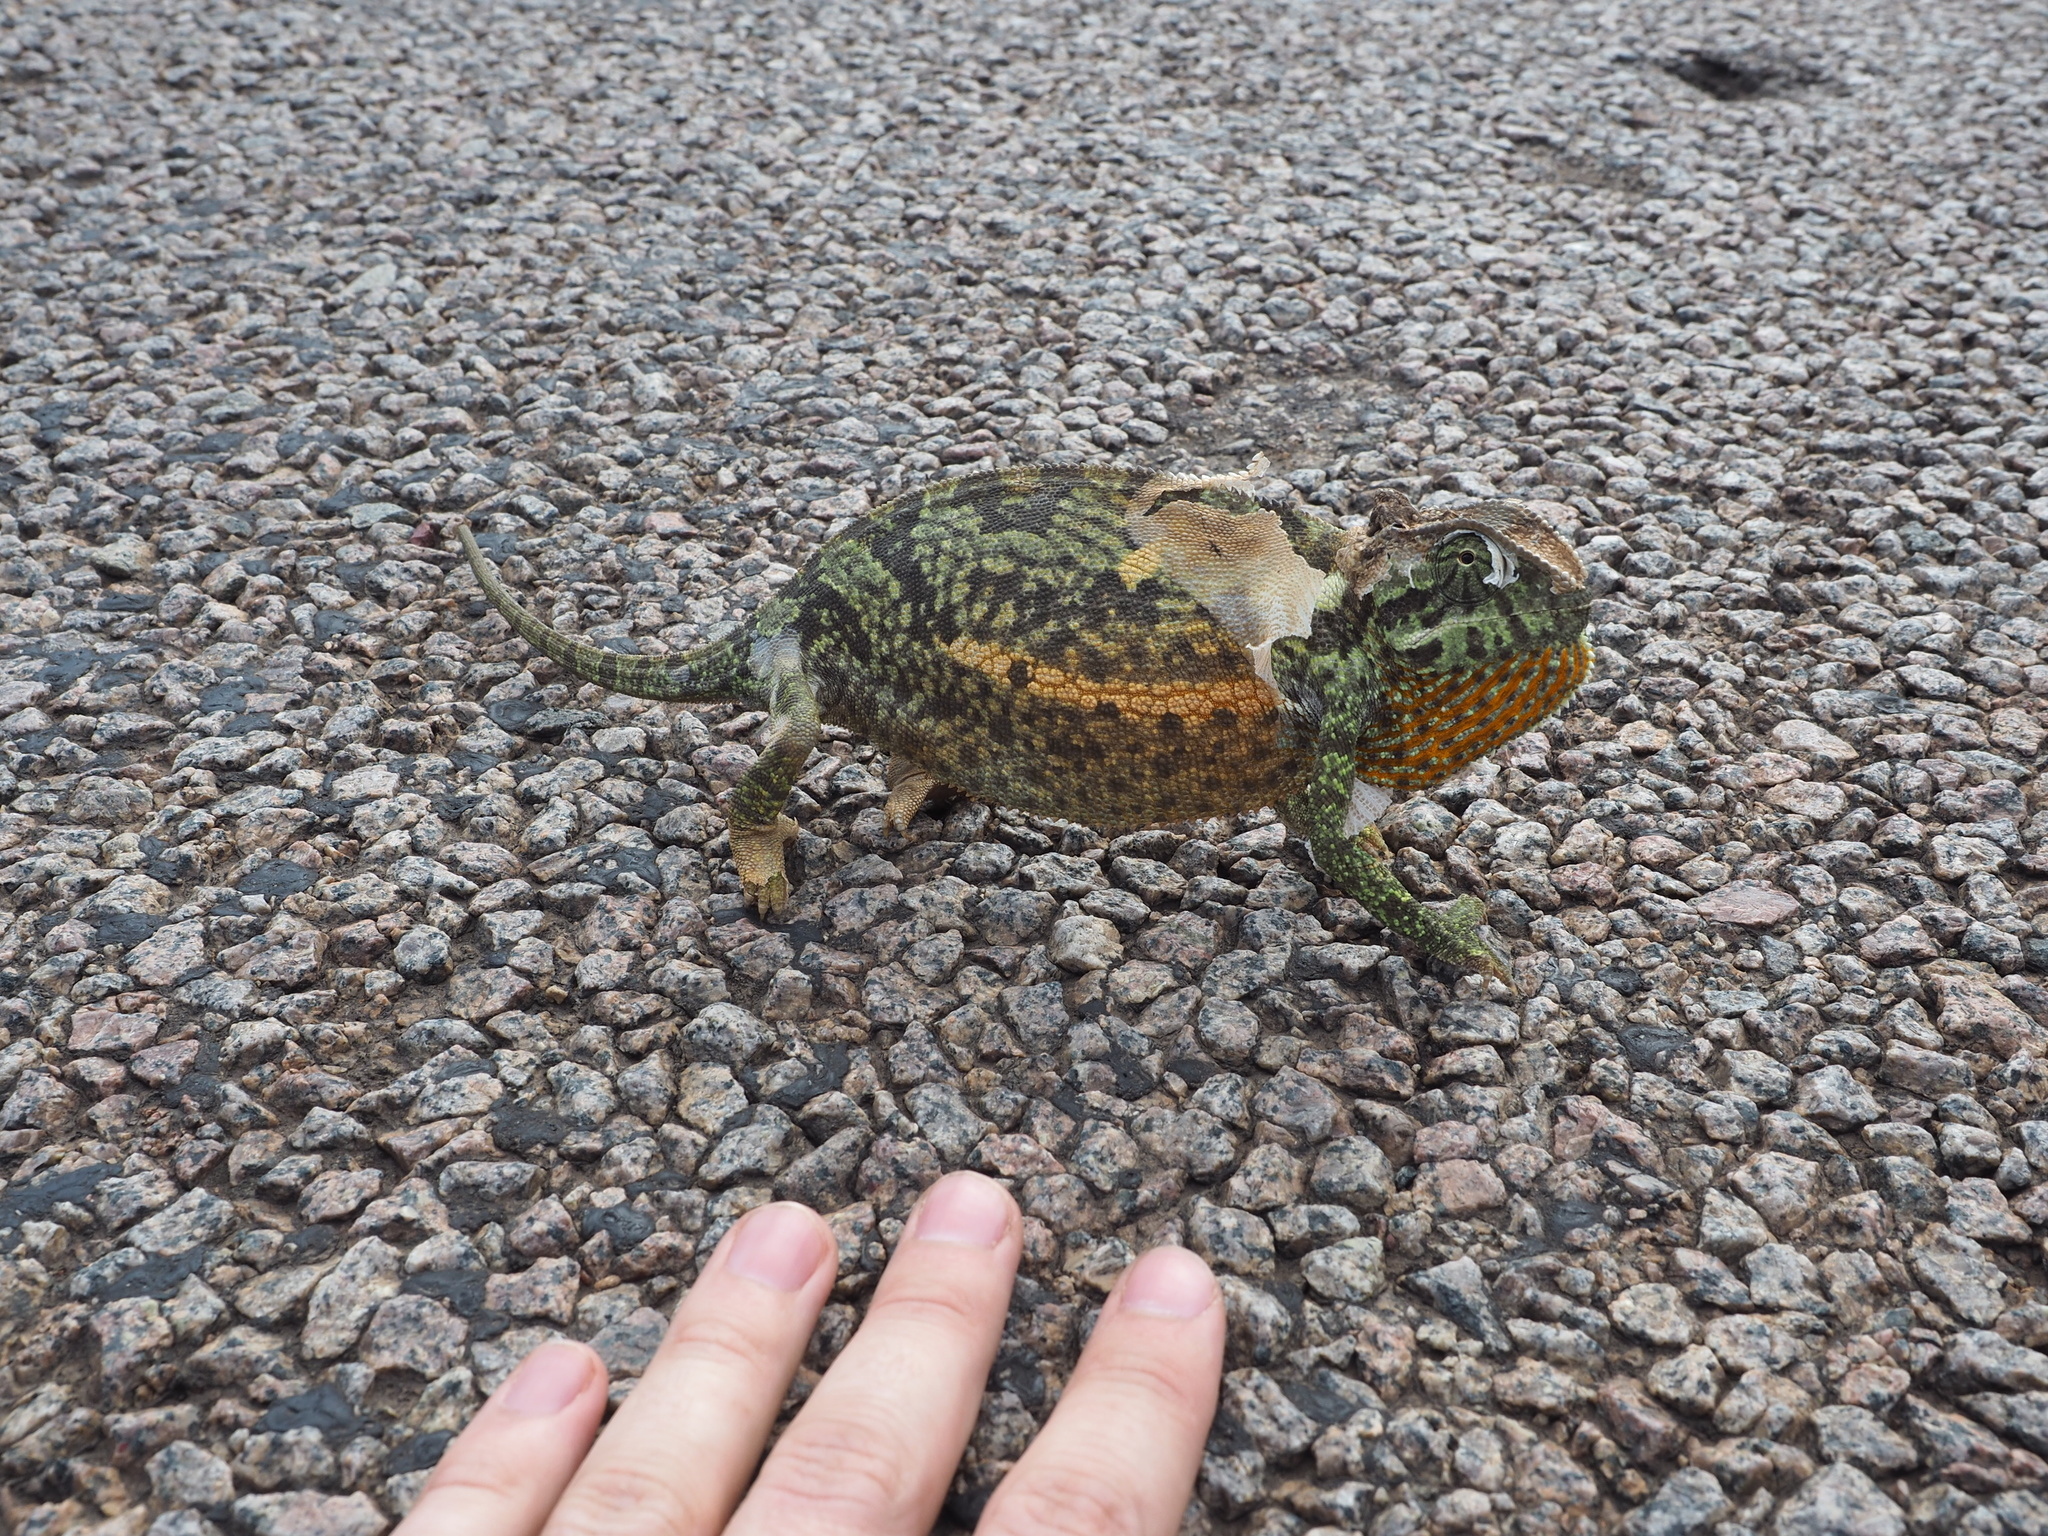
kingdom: Animalia
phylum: Chordata
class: Squamata
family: Chamaeleonidae
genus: Chamaeleo
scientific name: Chamaeleo dilepis
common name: Flapneck chameleon
